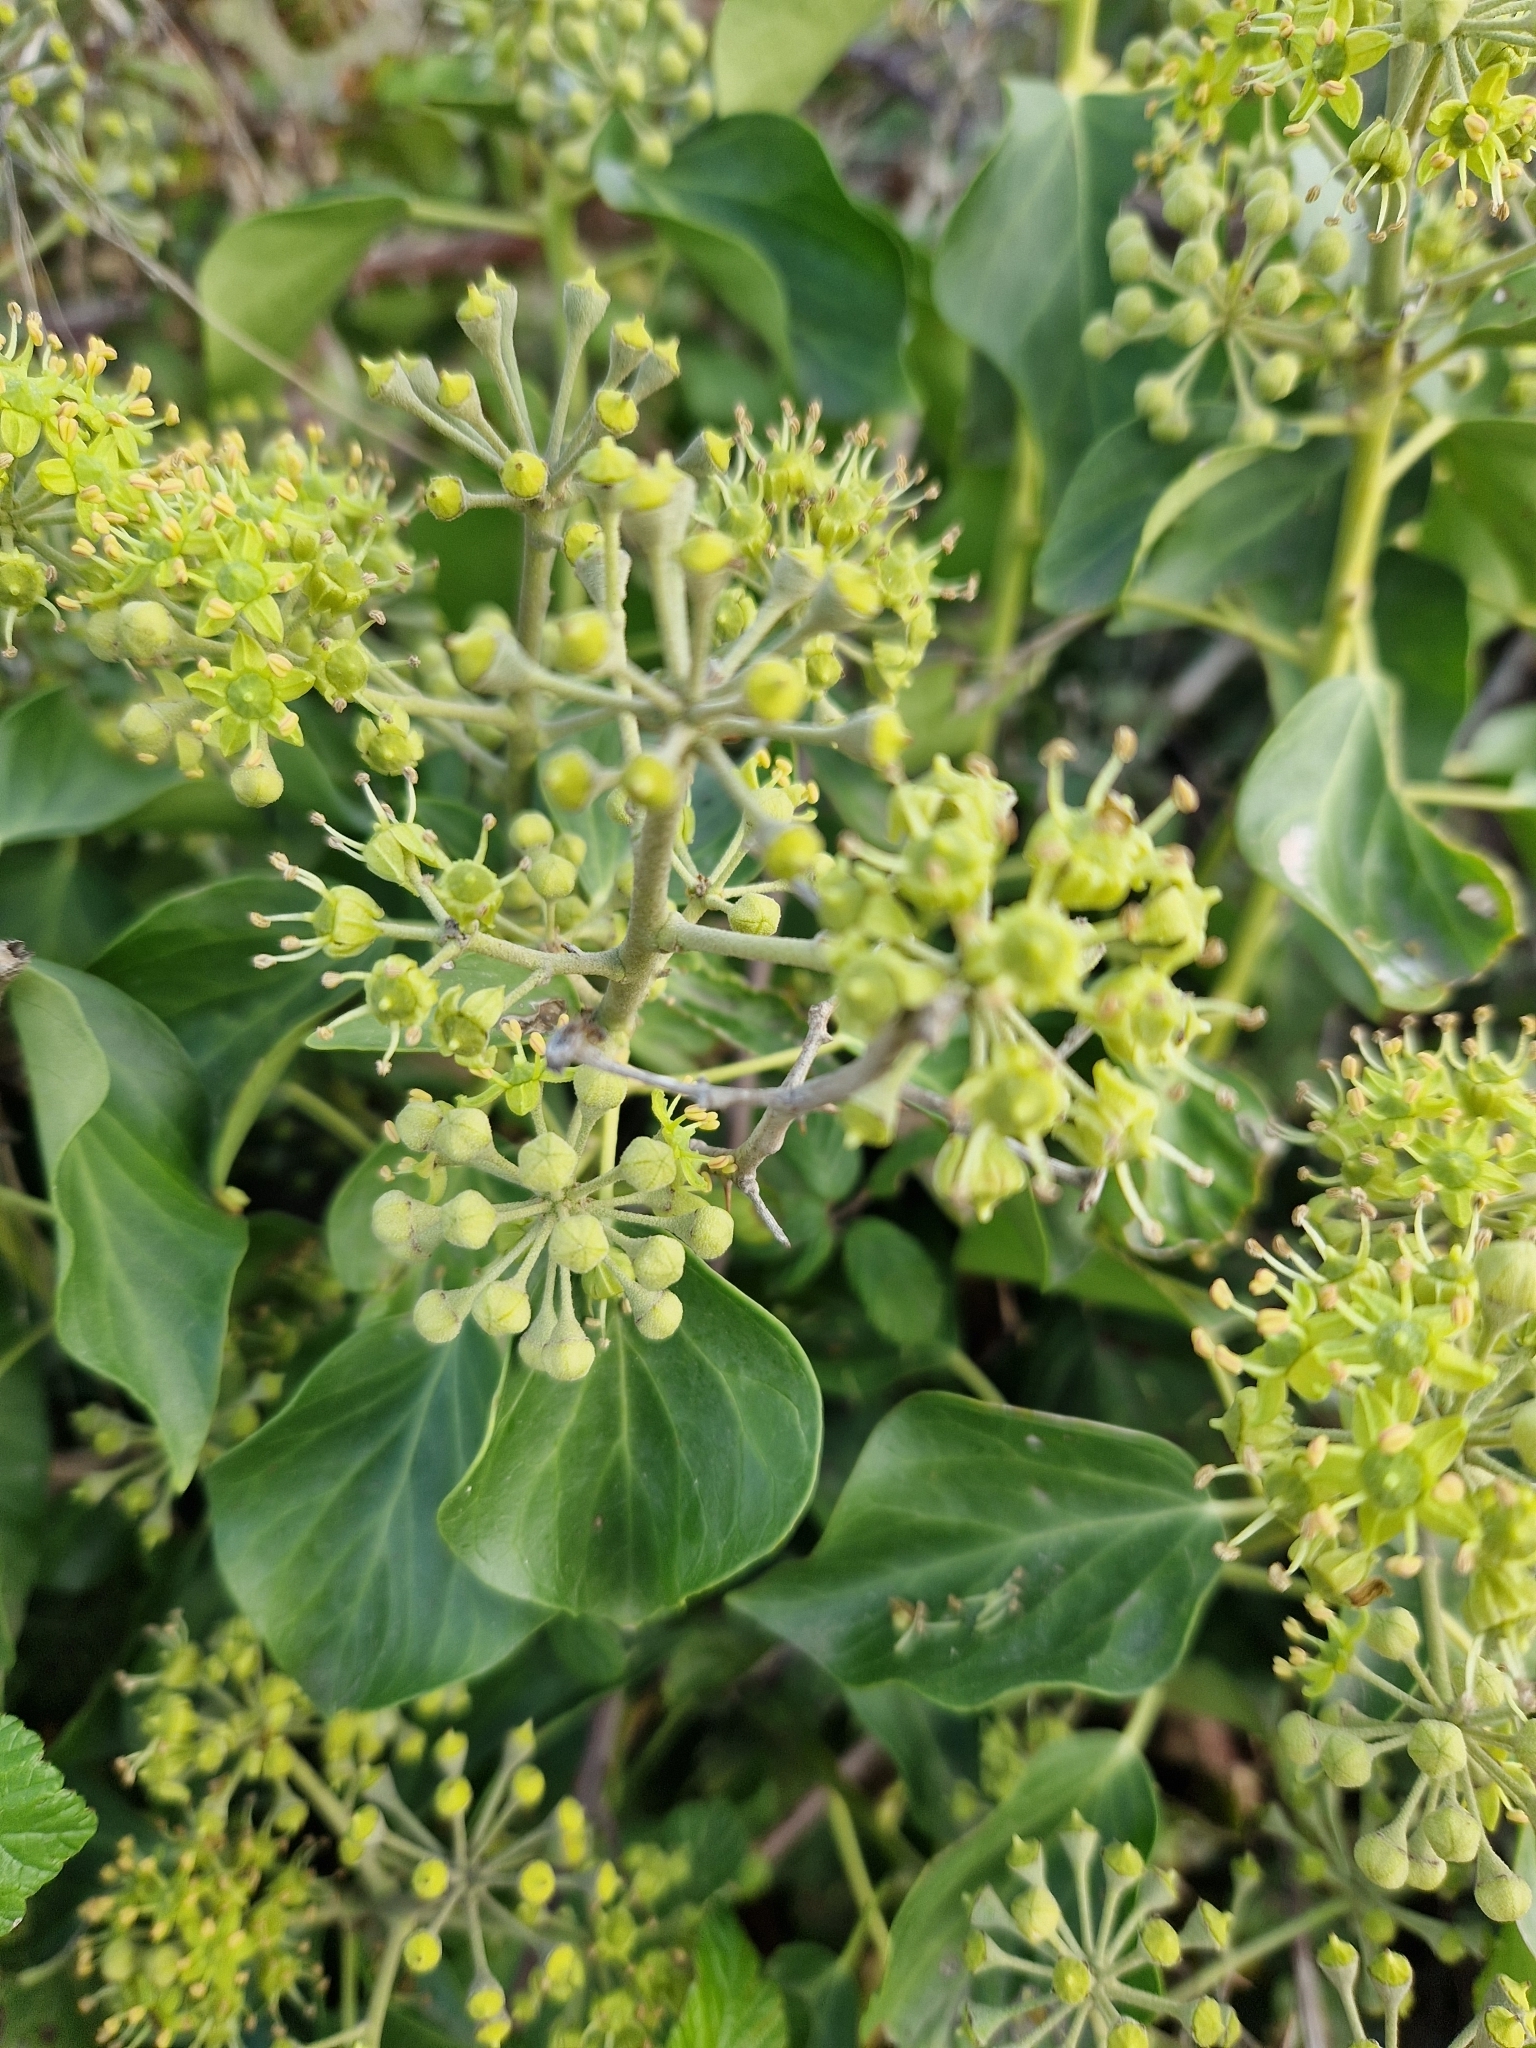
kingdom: Plantae
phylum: Tracheophyta
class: Magnoliopsida
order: Apiales
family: Araliaceae
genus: Hedera
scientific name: Hedera helix
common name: Ivy
